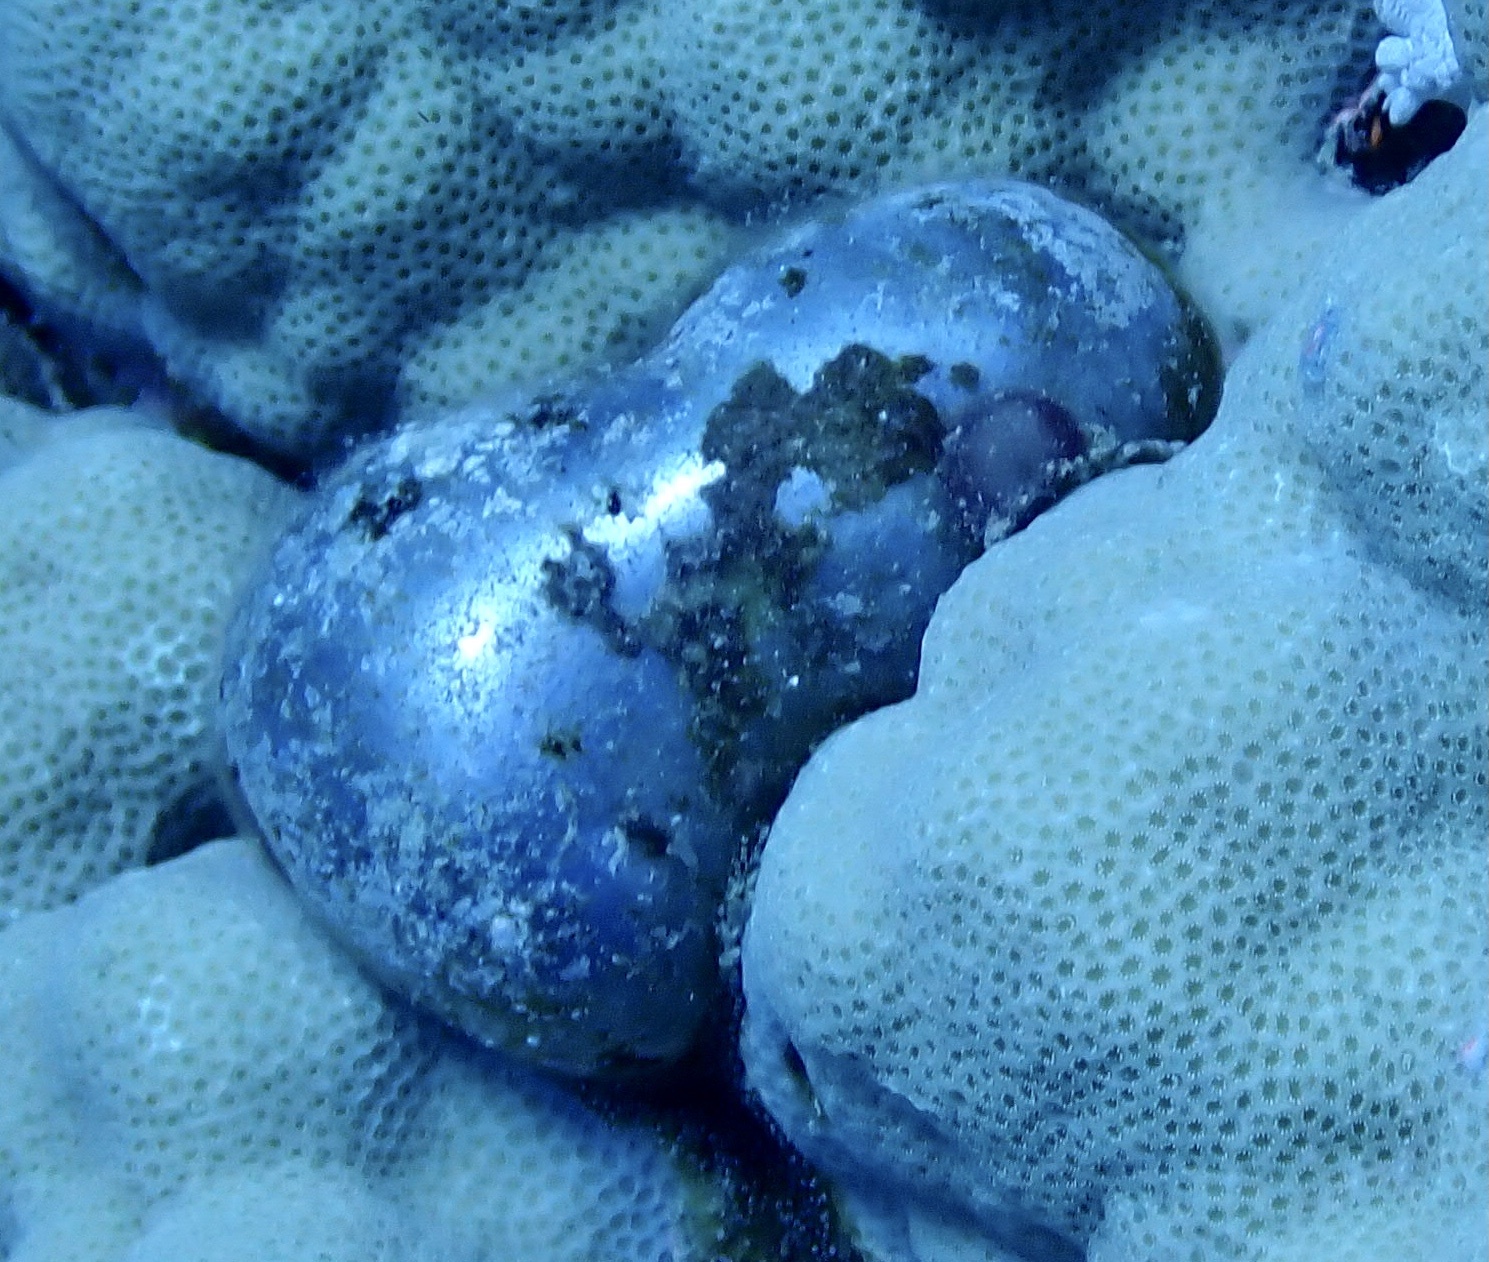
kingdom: Plantae
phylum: Chlorophyta
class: Ulvophyceae
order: Siphonocladales
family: Valoniaceae
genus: Valonia
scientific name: Valonia ventricosa
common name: Sea pearl
